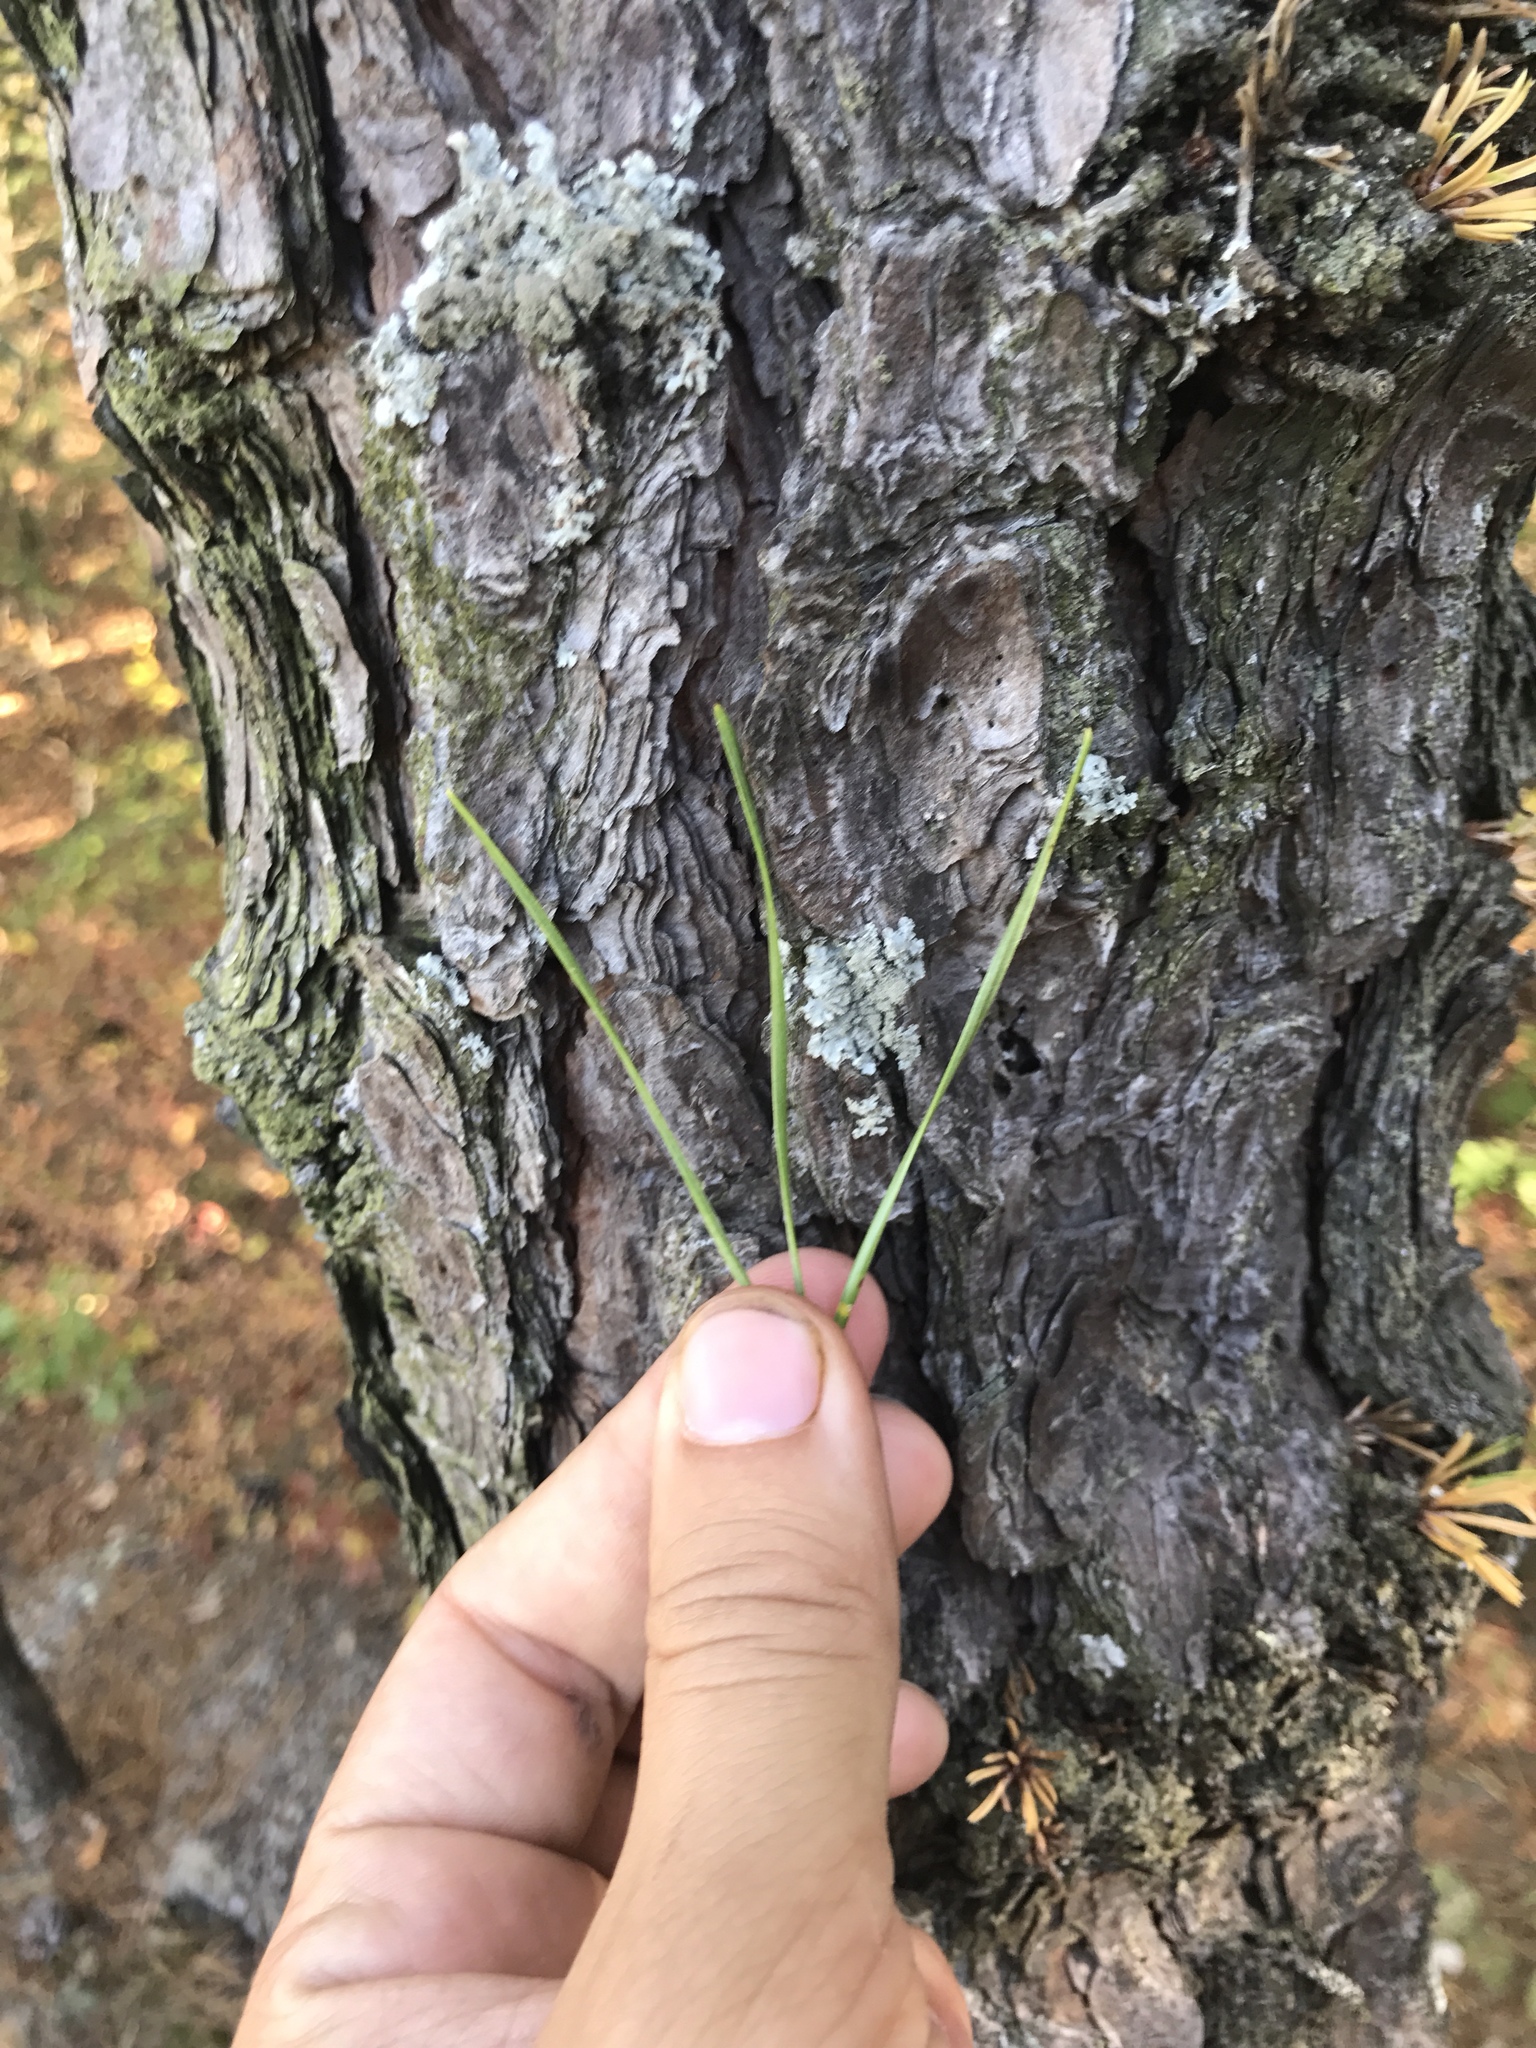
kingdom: Plantae
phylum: Tracheophyta
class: Pinopsida
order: Pinales
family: Pinaceae
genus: Pinus
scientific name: Pinus rigida
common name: Pitch pine
